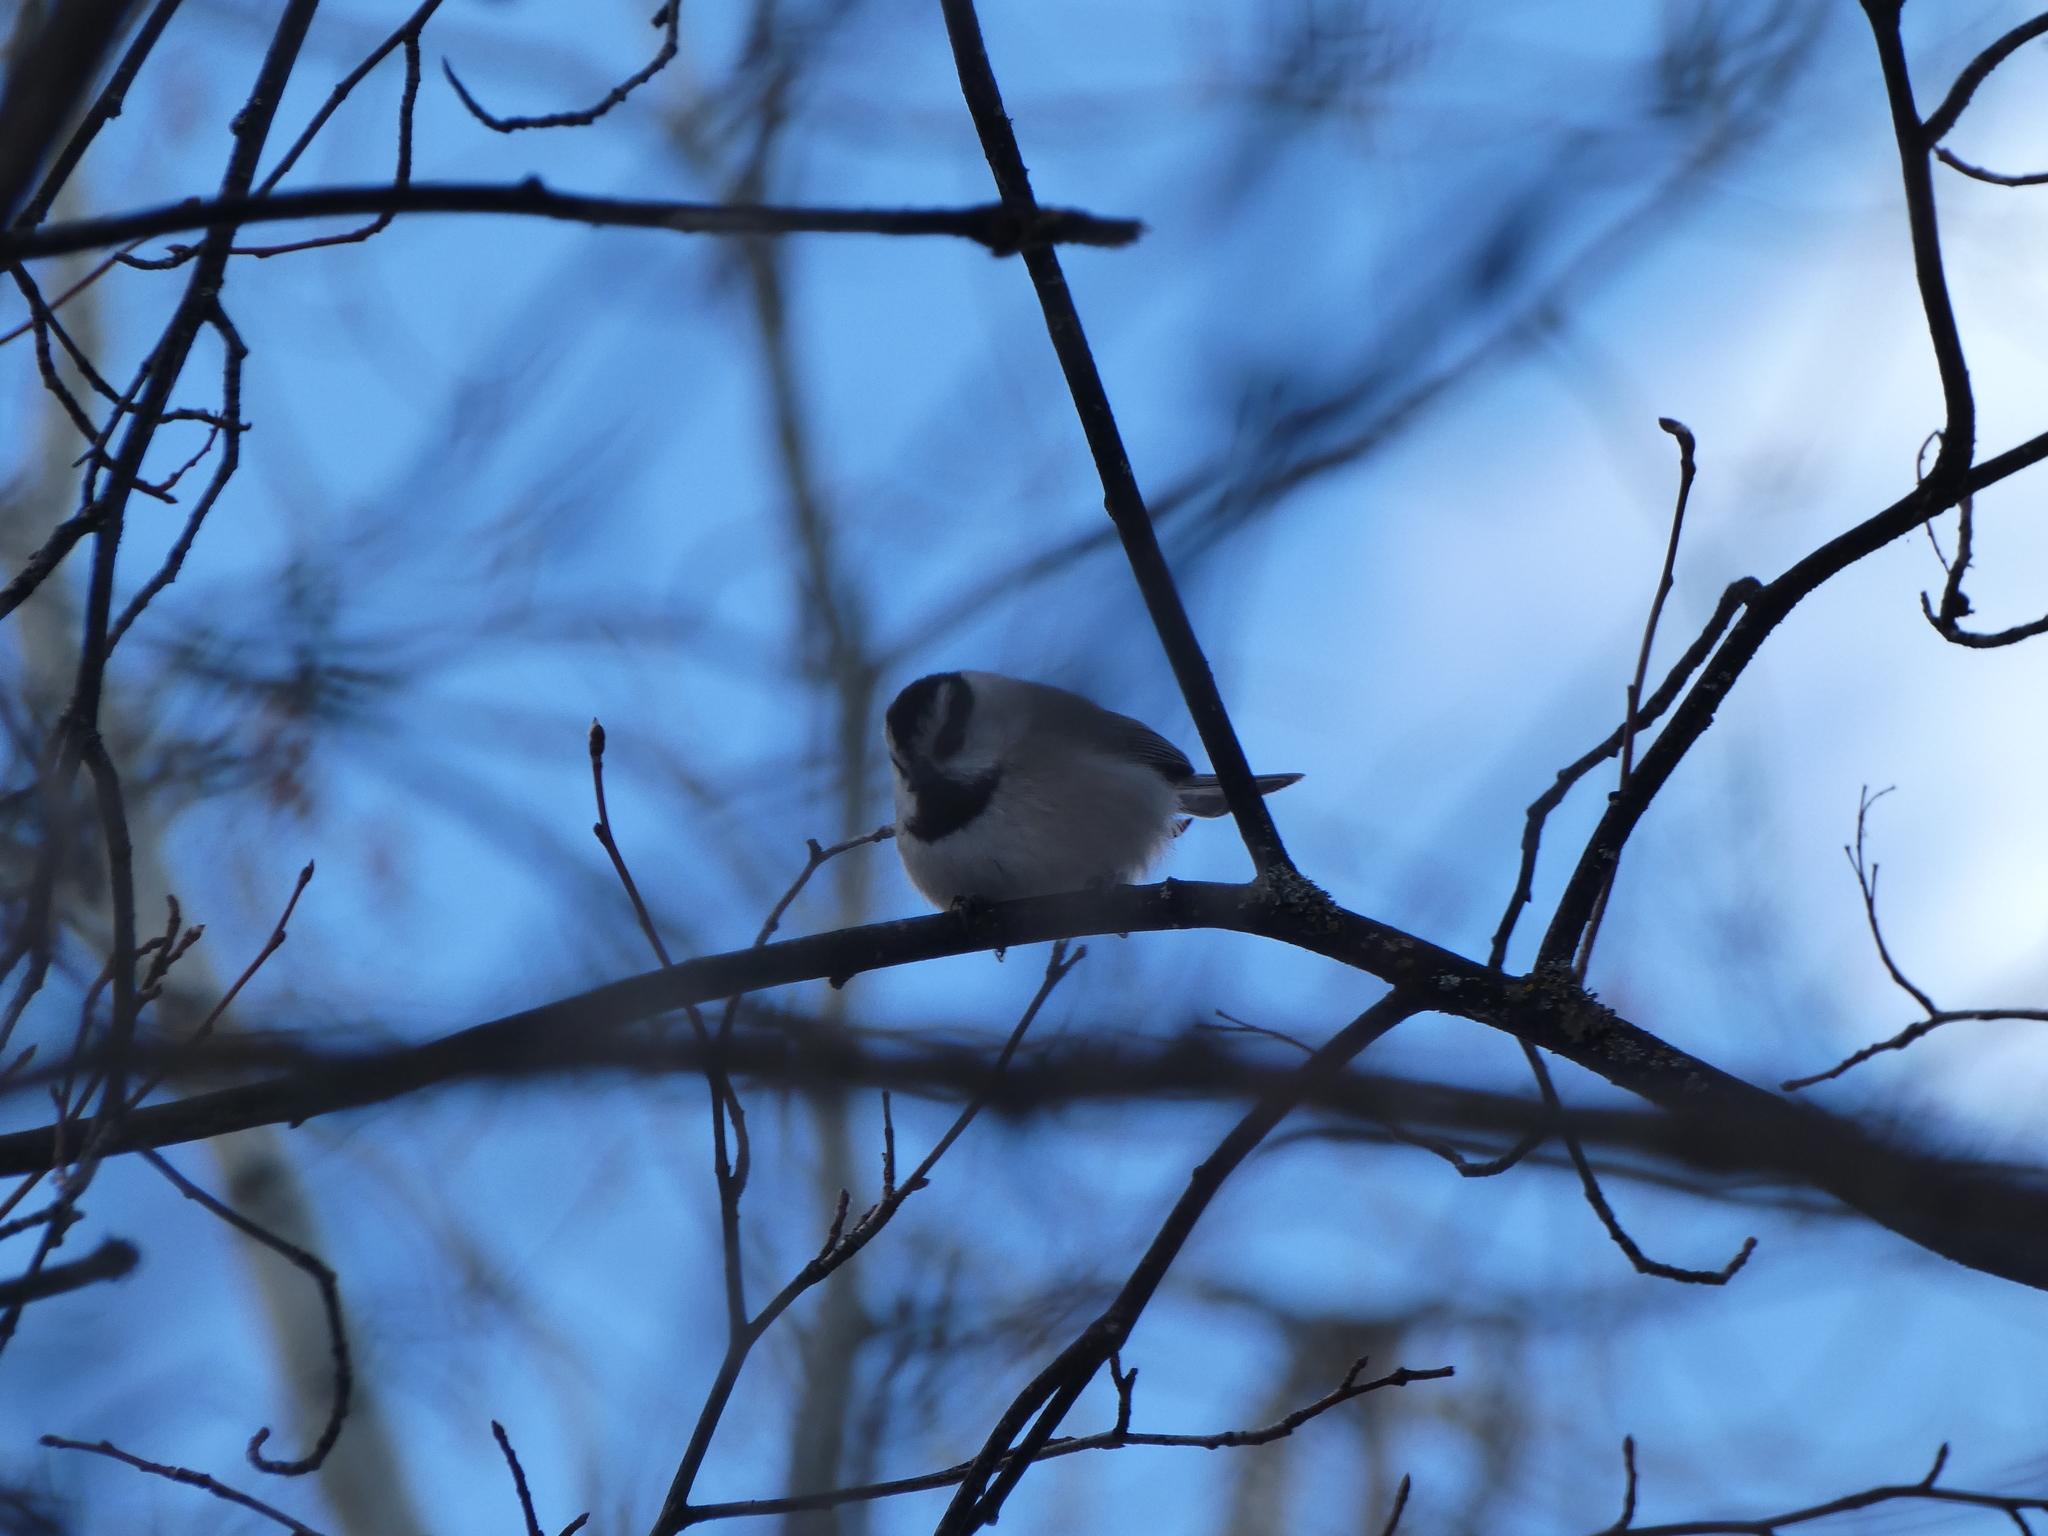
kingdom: Animalia
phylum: Chordata
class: Aves
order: Passeriformes
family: Paridae
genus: Poecile
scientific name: Poecile gambeli
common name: Mountain chickadee
